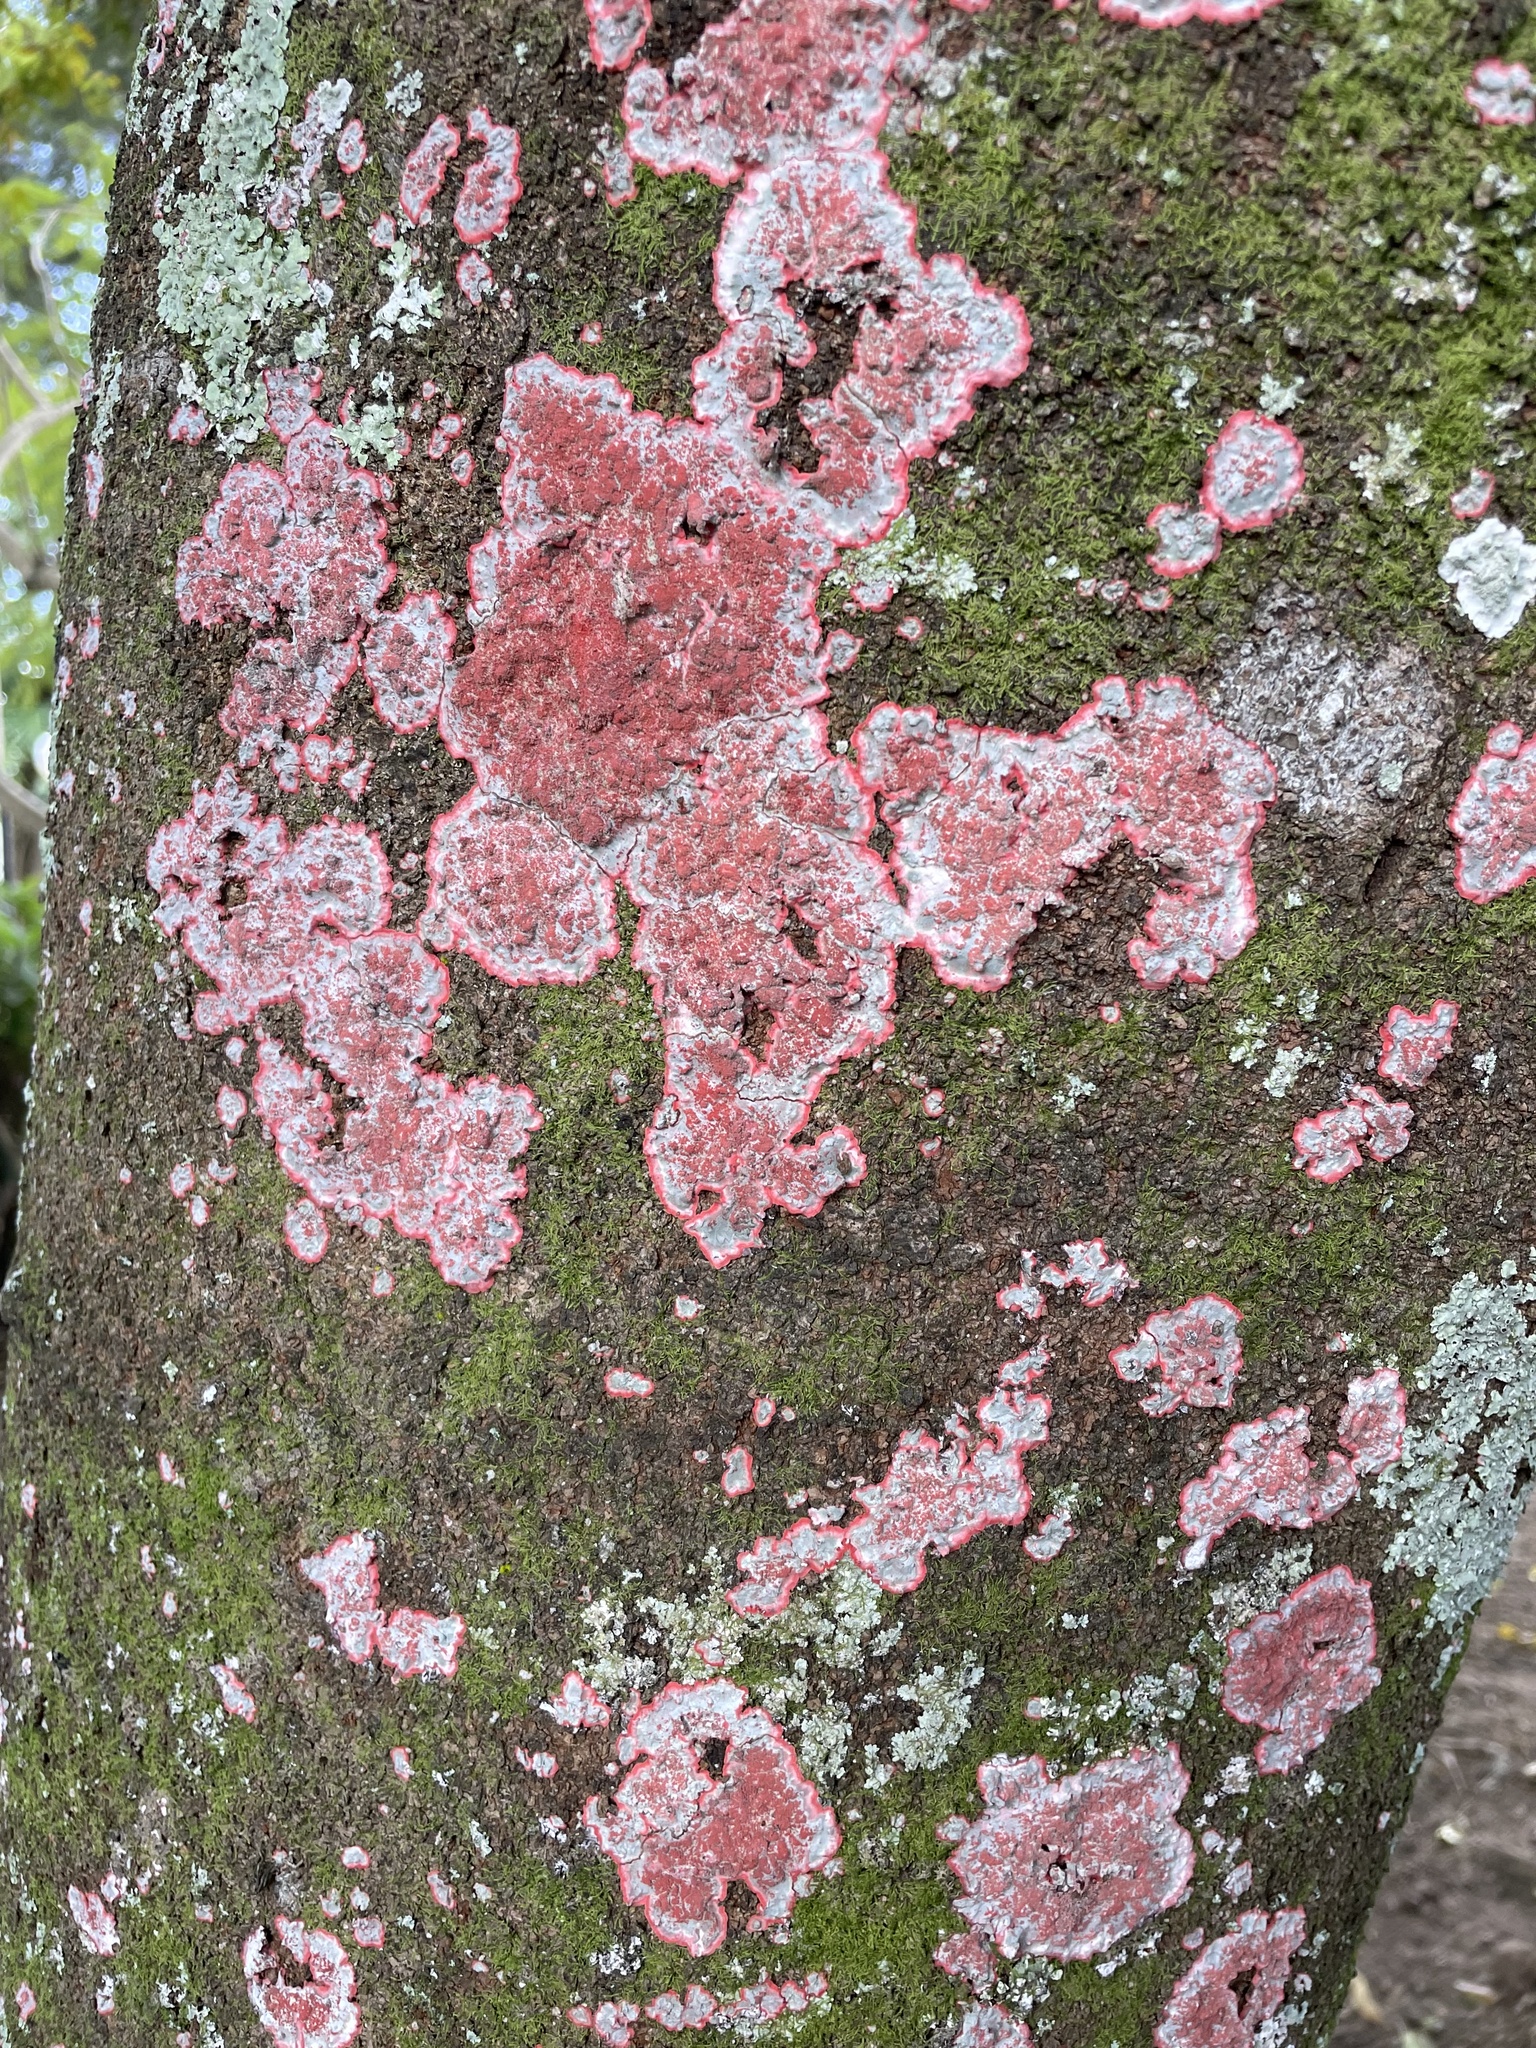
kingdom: Fungi
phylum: Ascomycota
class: Arthoniomycetes
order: Arthoniales
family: Arthoniaceae
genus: Herpothallon
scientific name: Herpothallon rubrocinctum
